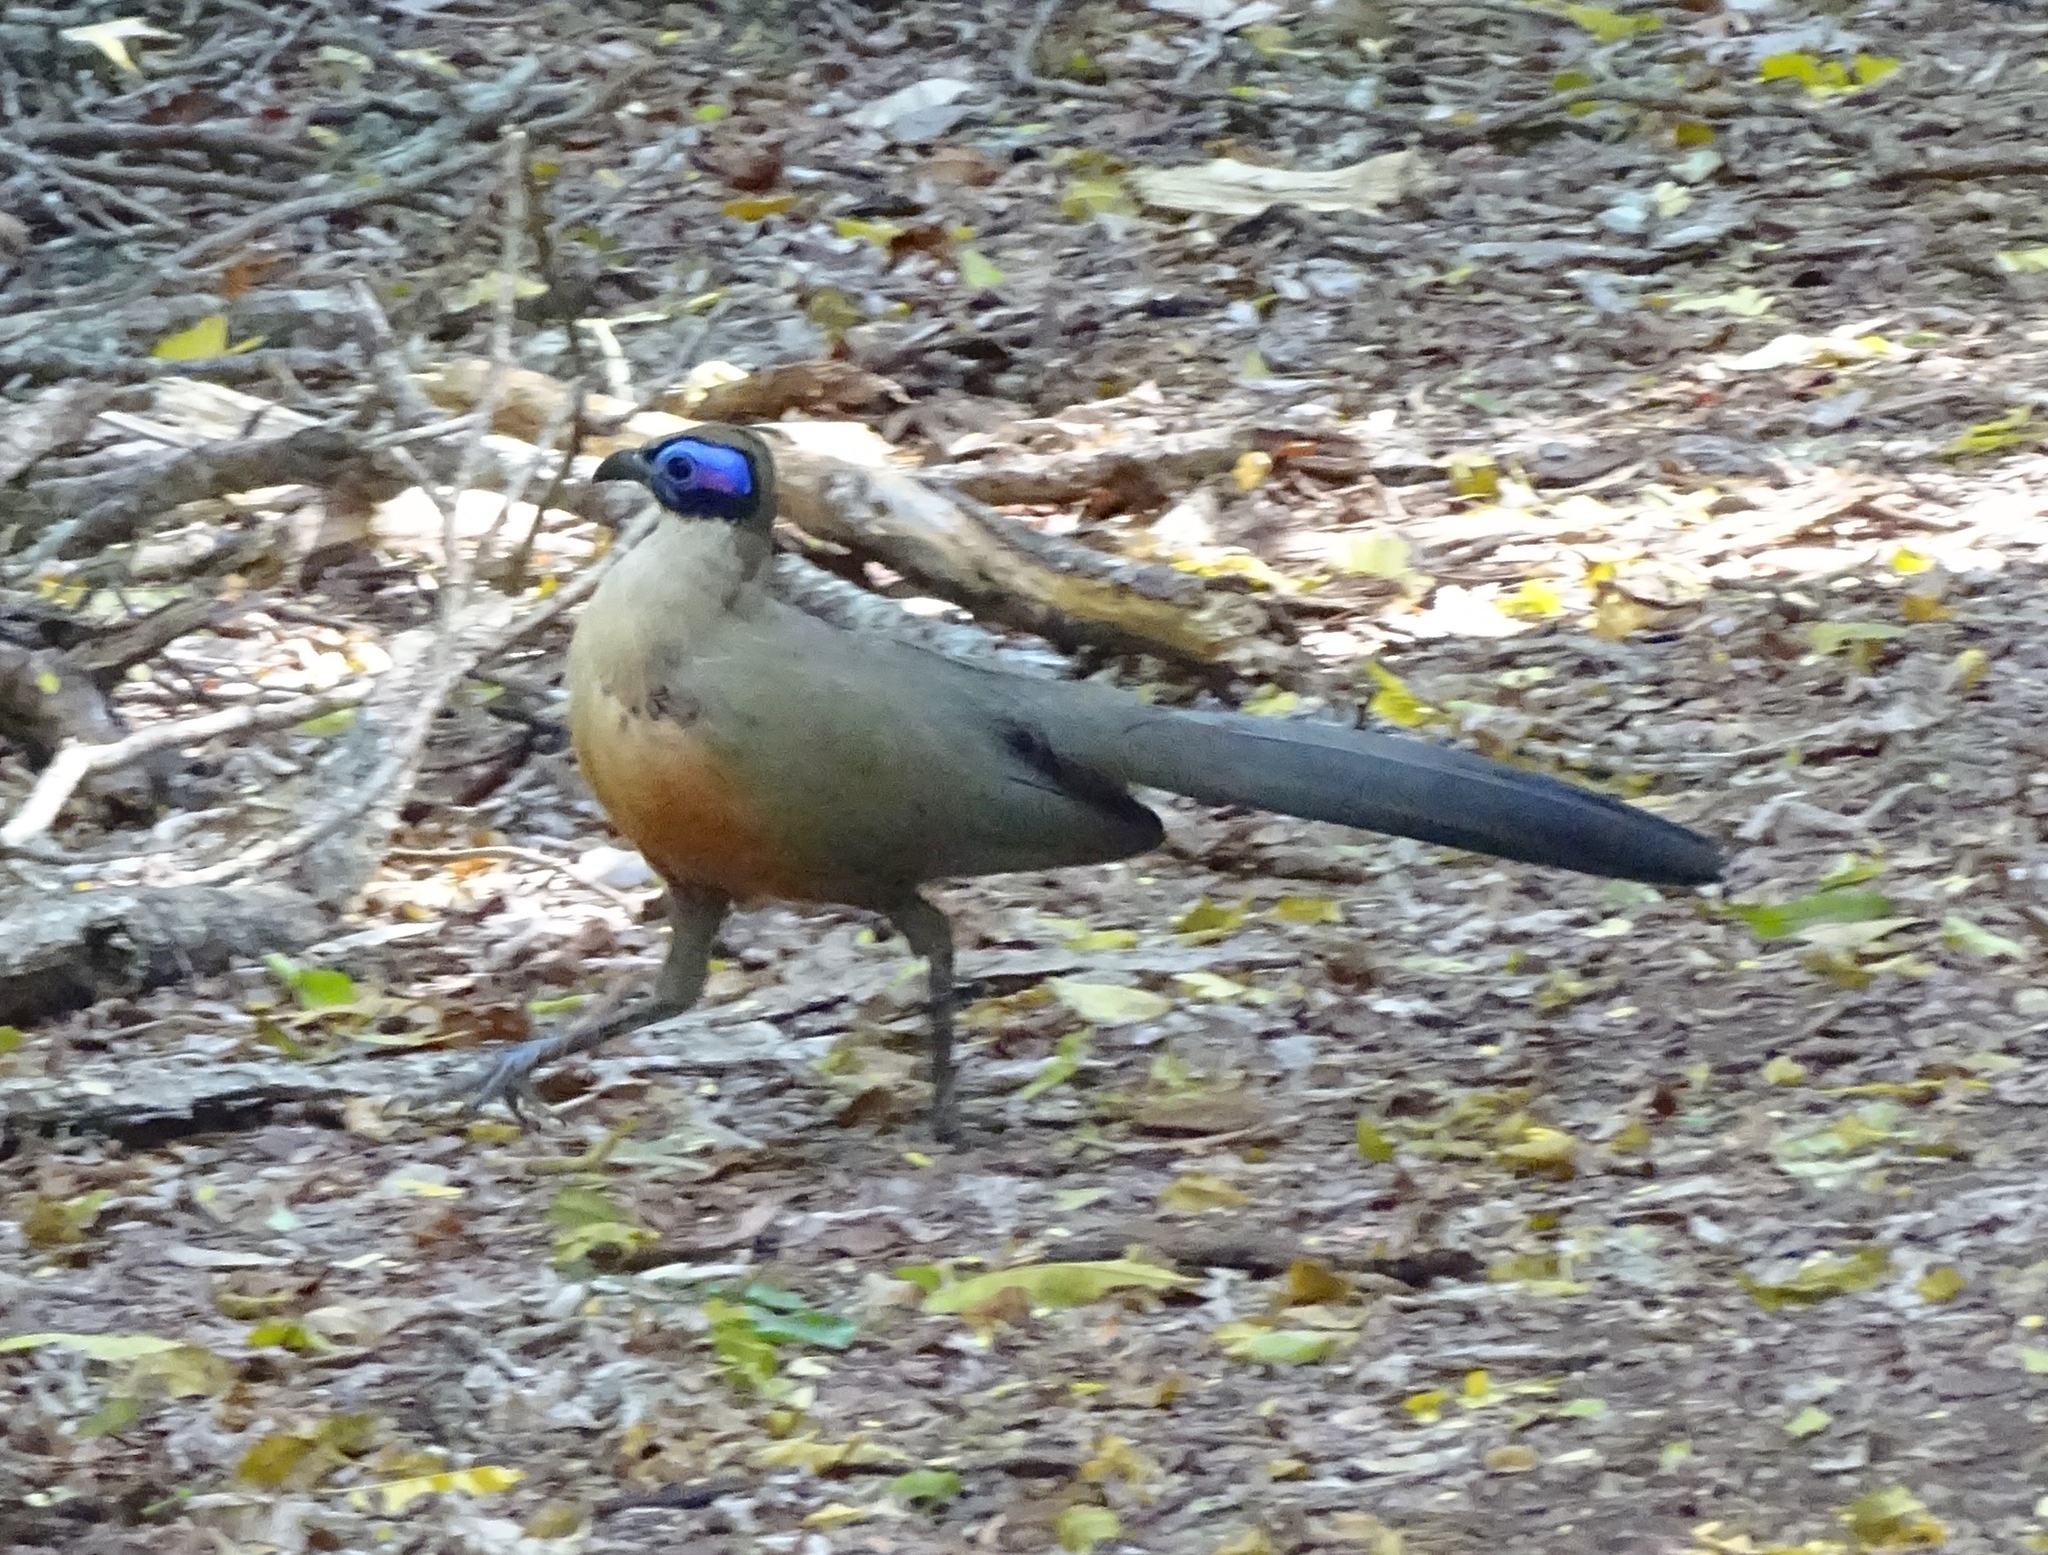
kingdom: Animalia
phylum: Chordata
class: Aves
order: Cuculiformes
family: Cuculidae
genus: Coua
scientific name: Coua gigas
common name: Giant coua
